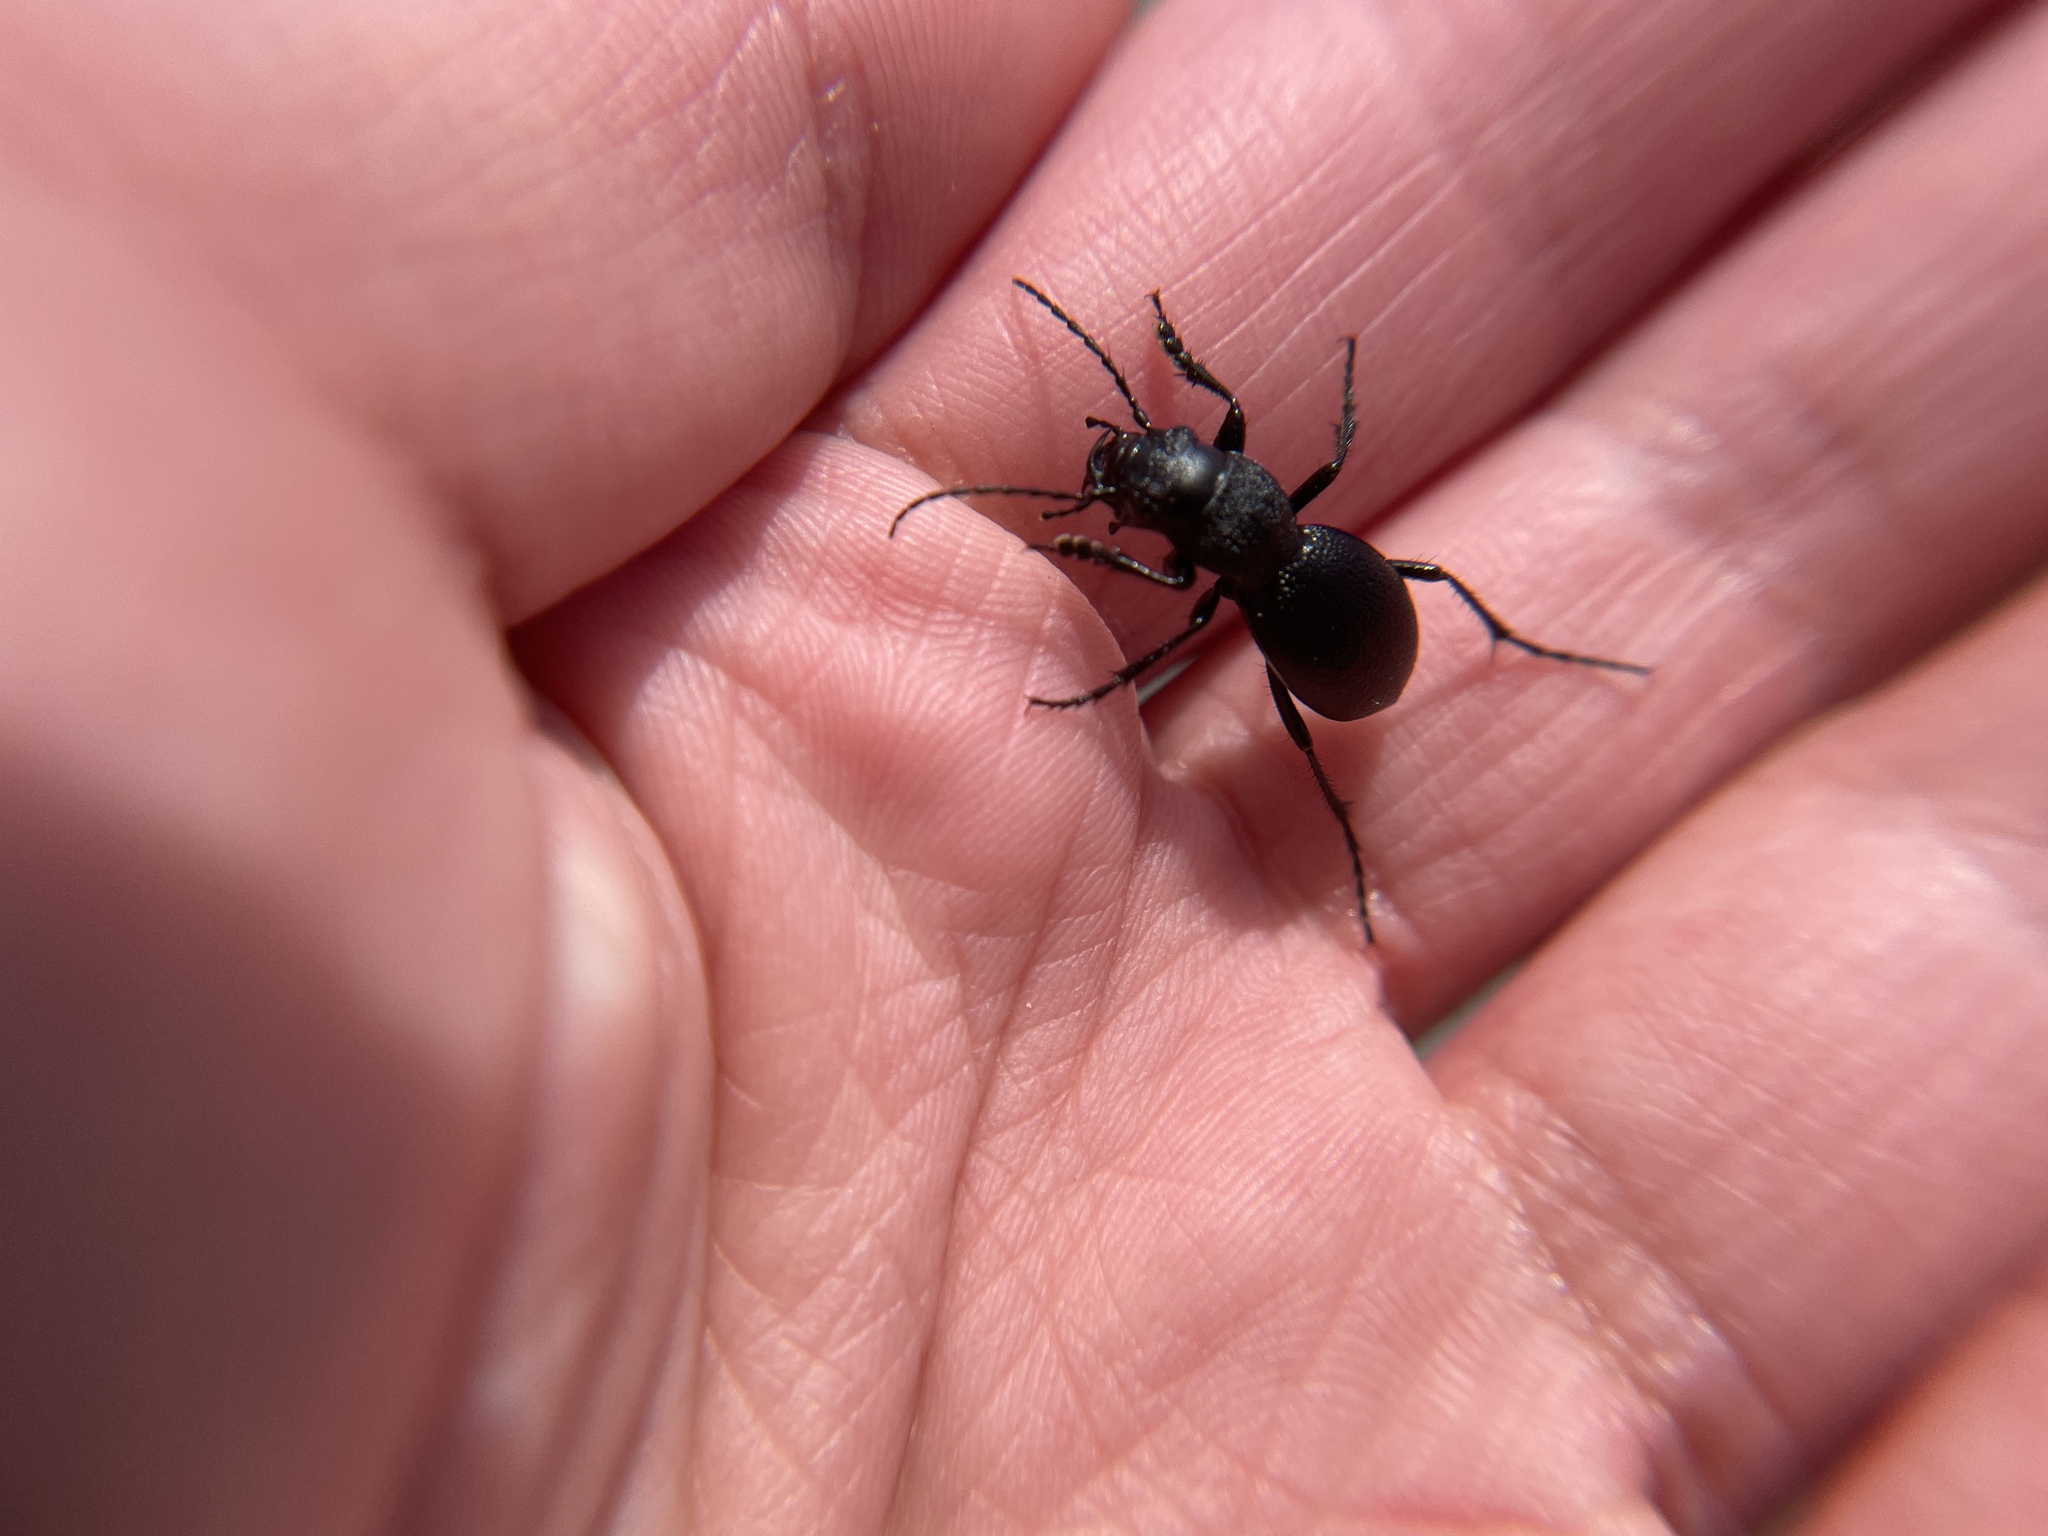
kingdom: Animalia
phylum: Arthropoda
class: Insecta
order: Coleoptera
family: Carabidae
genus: Omus
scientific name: Omus californicus
